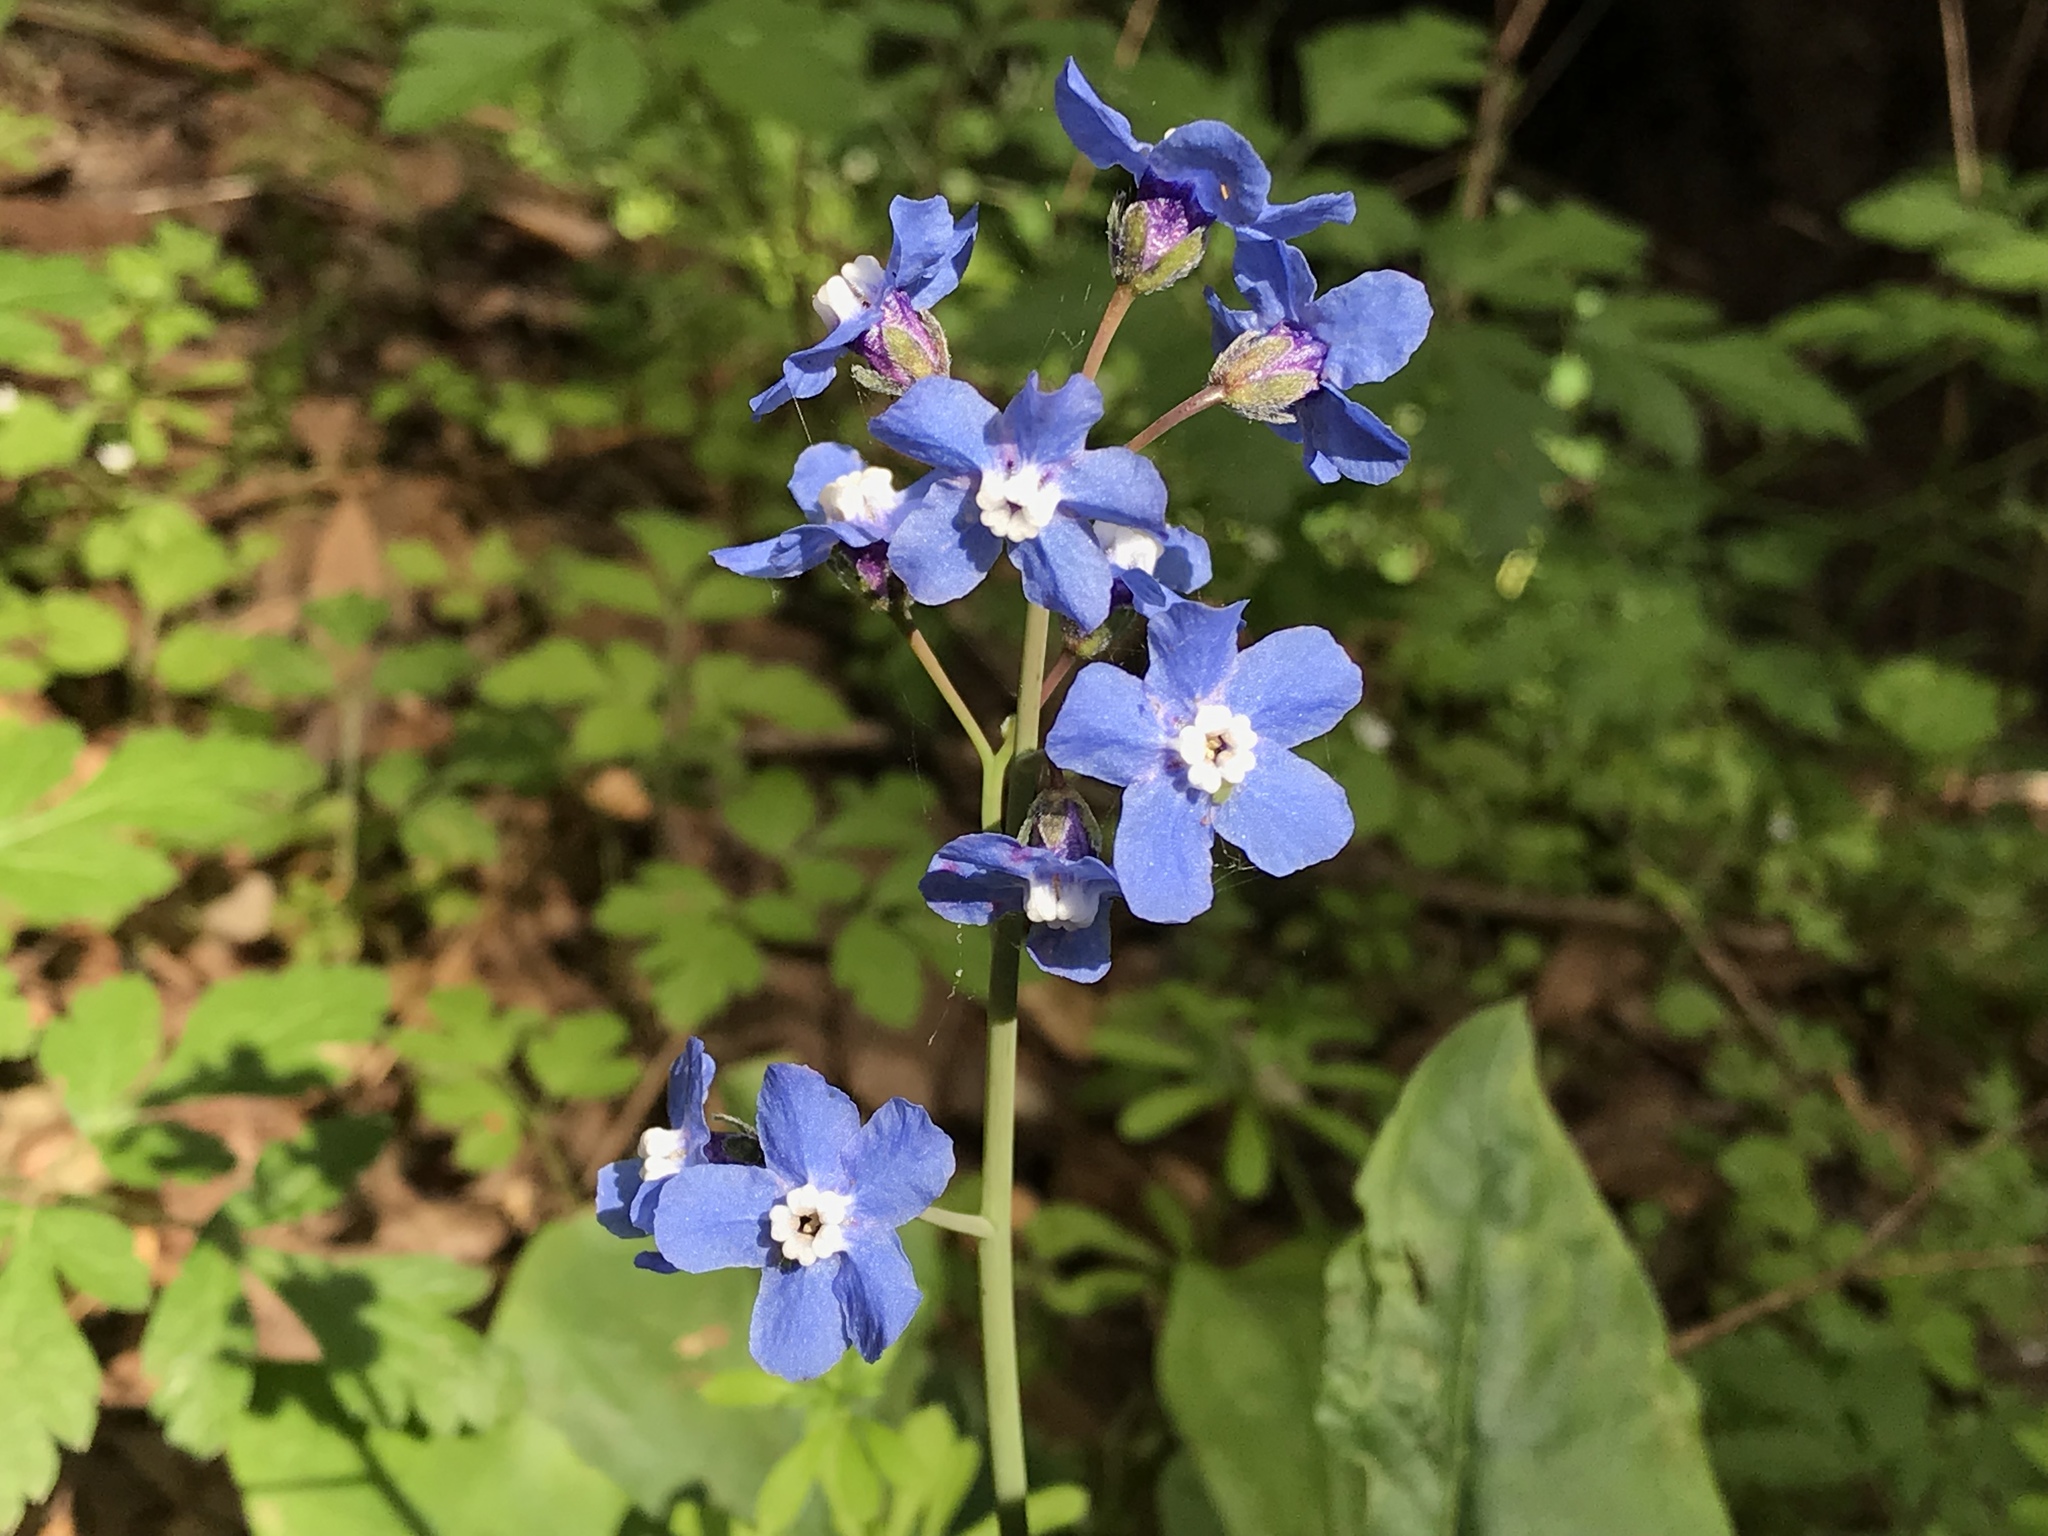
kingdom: Plantae
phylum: Tracheophyta
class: Magnoliopsida
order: Boraginales
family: Boraginaceae
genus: Adelinia
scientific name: Adelinia grande
